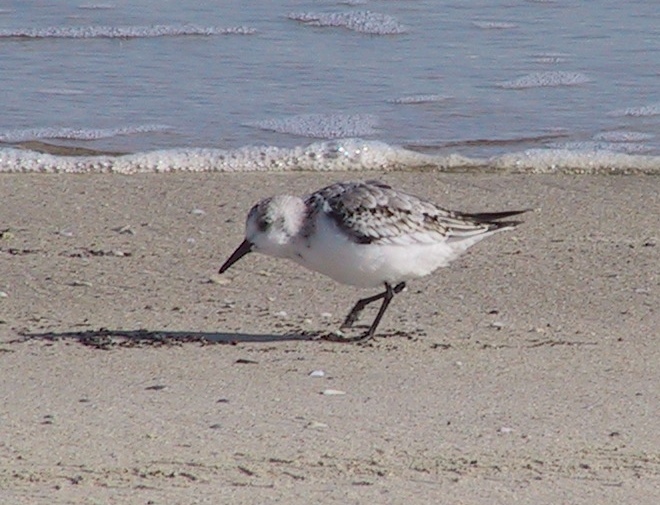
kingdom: Animalia
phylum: Chordata
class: Aves
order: Charadriiformes
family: Scolopacidae
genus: Calidris
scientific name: Calidris alba
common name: Sanderling
